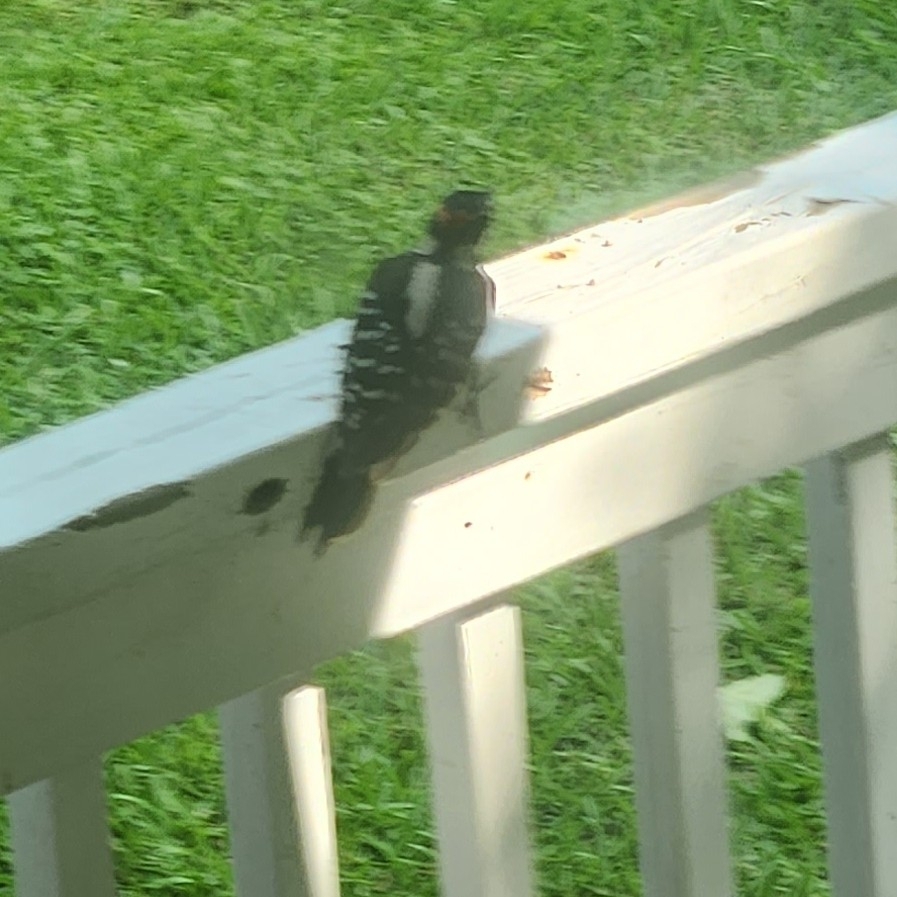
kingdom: Animalia
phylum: Chordata
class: Aves
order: Piciformes
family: Picidae
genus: Leuconotopicus
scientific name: Leuconotopicus villosus
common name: Hairy woodpecker
